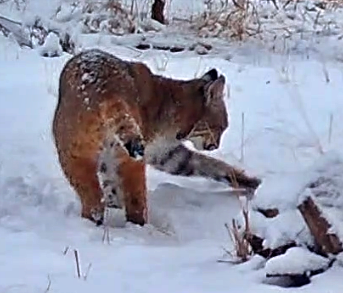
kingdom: Animalia
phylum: Chordata
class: Mammalia
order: Carnivora
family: Felidae
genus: Lynx
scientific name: Lynx rufus
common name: Bobcat
